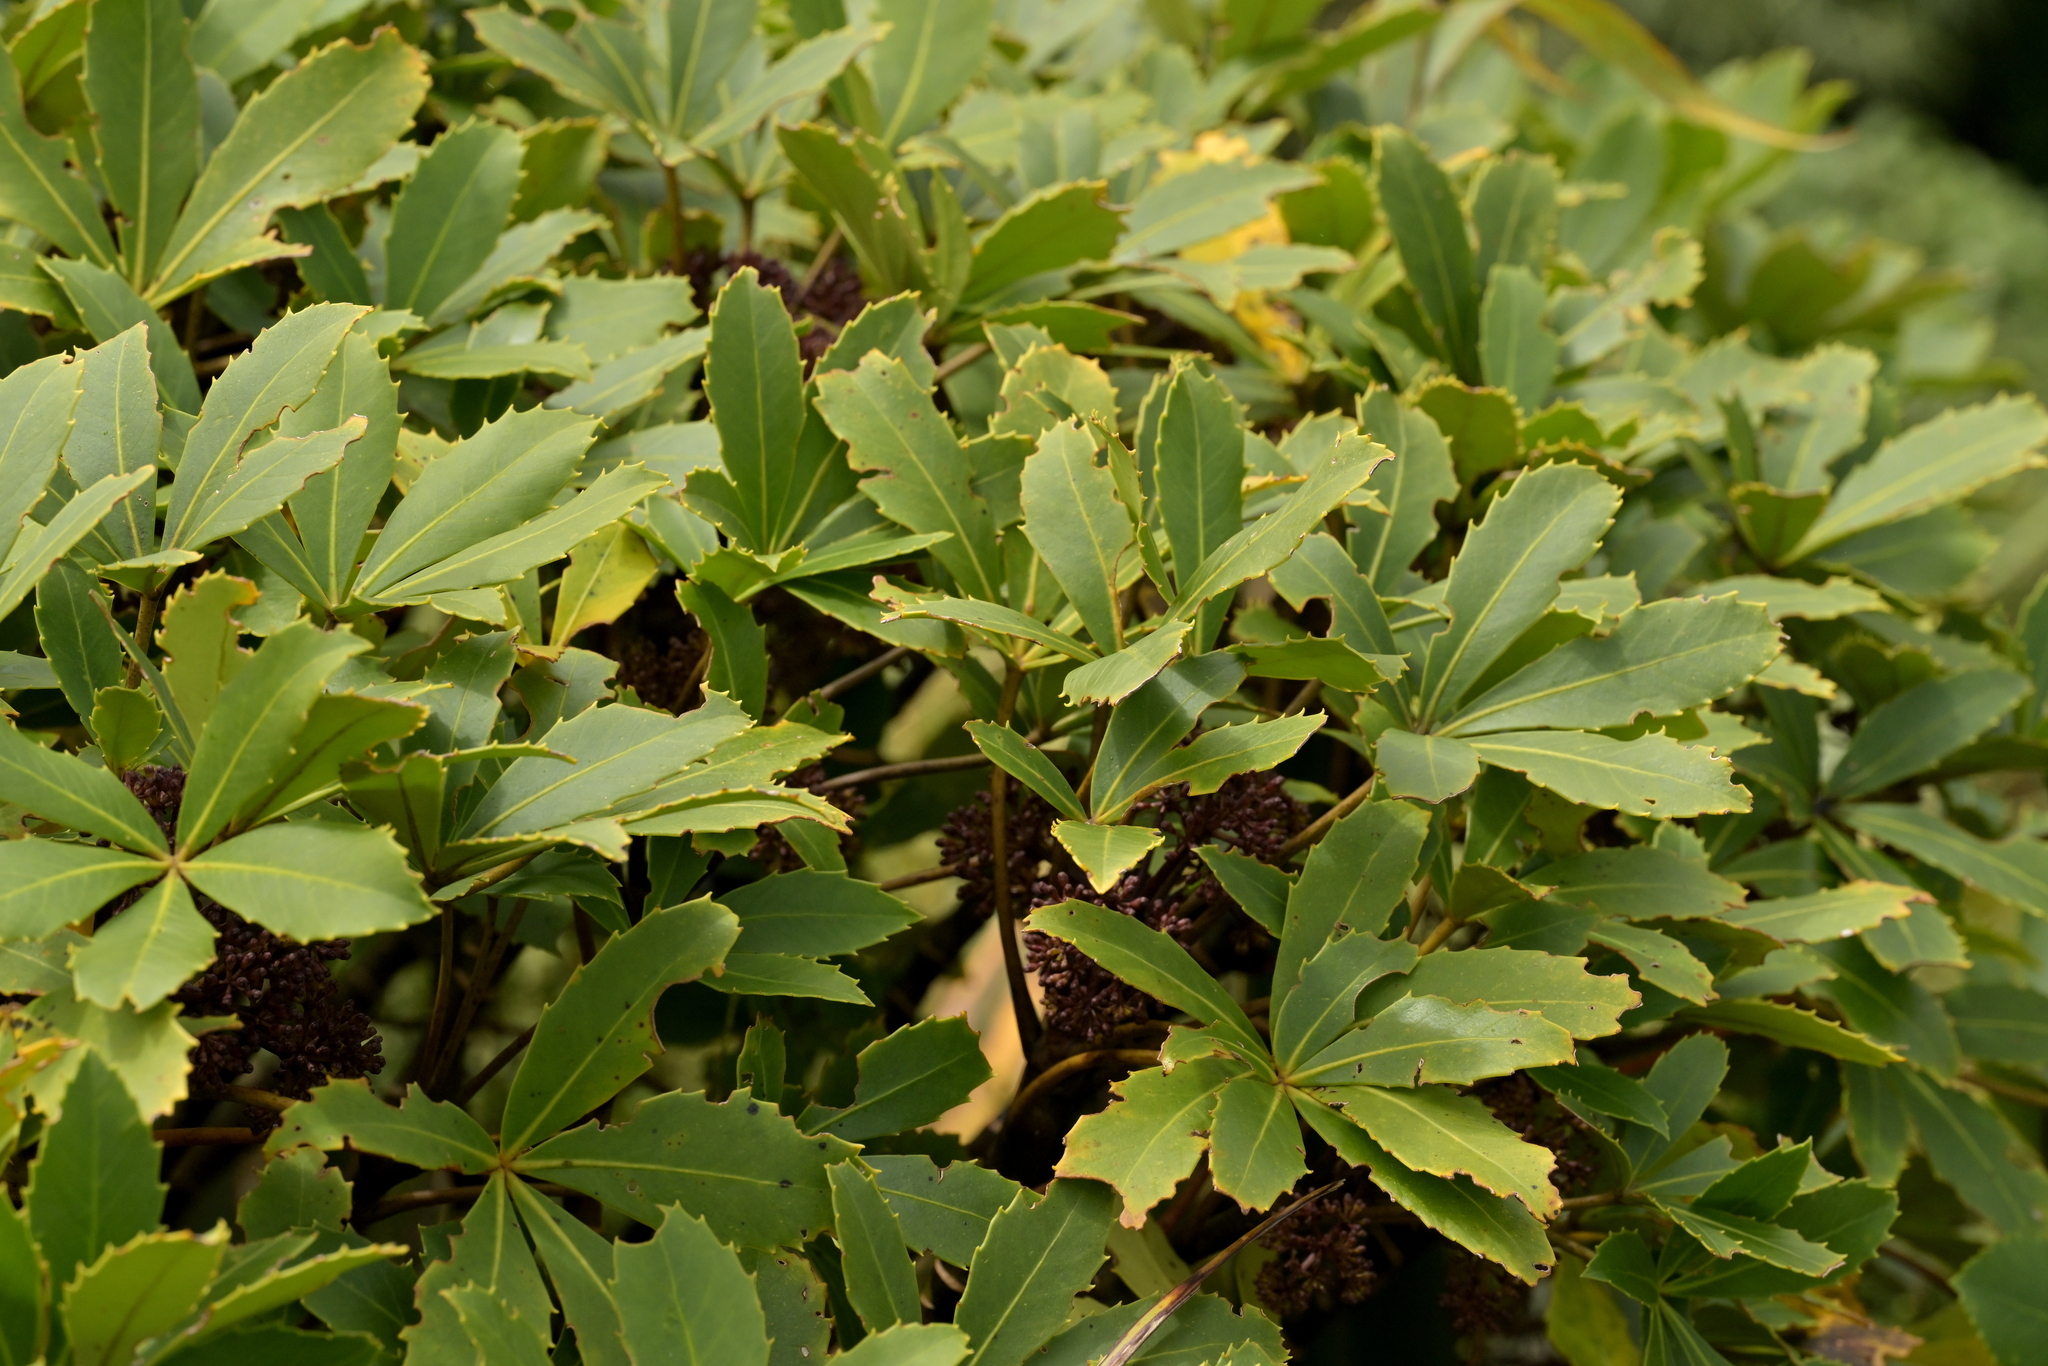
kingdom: Plantae
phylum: Tracheophyta
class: Magnoliopsida
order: Apiales
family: Araliaceae
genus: Neopanax
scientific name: Neopanax colensoi
